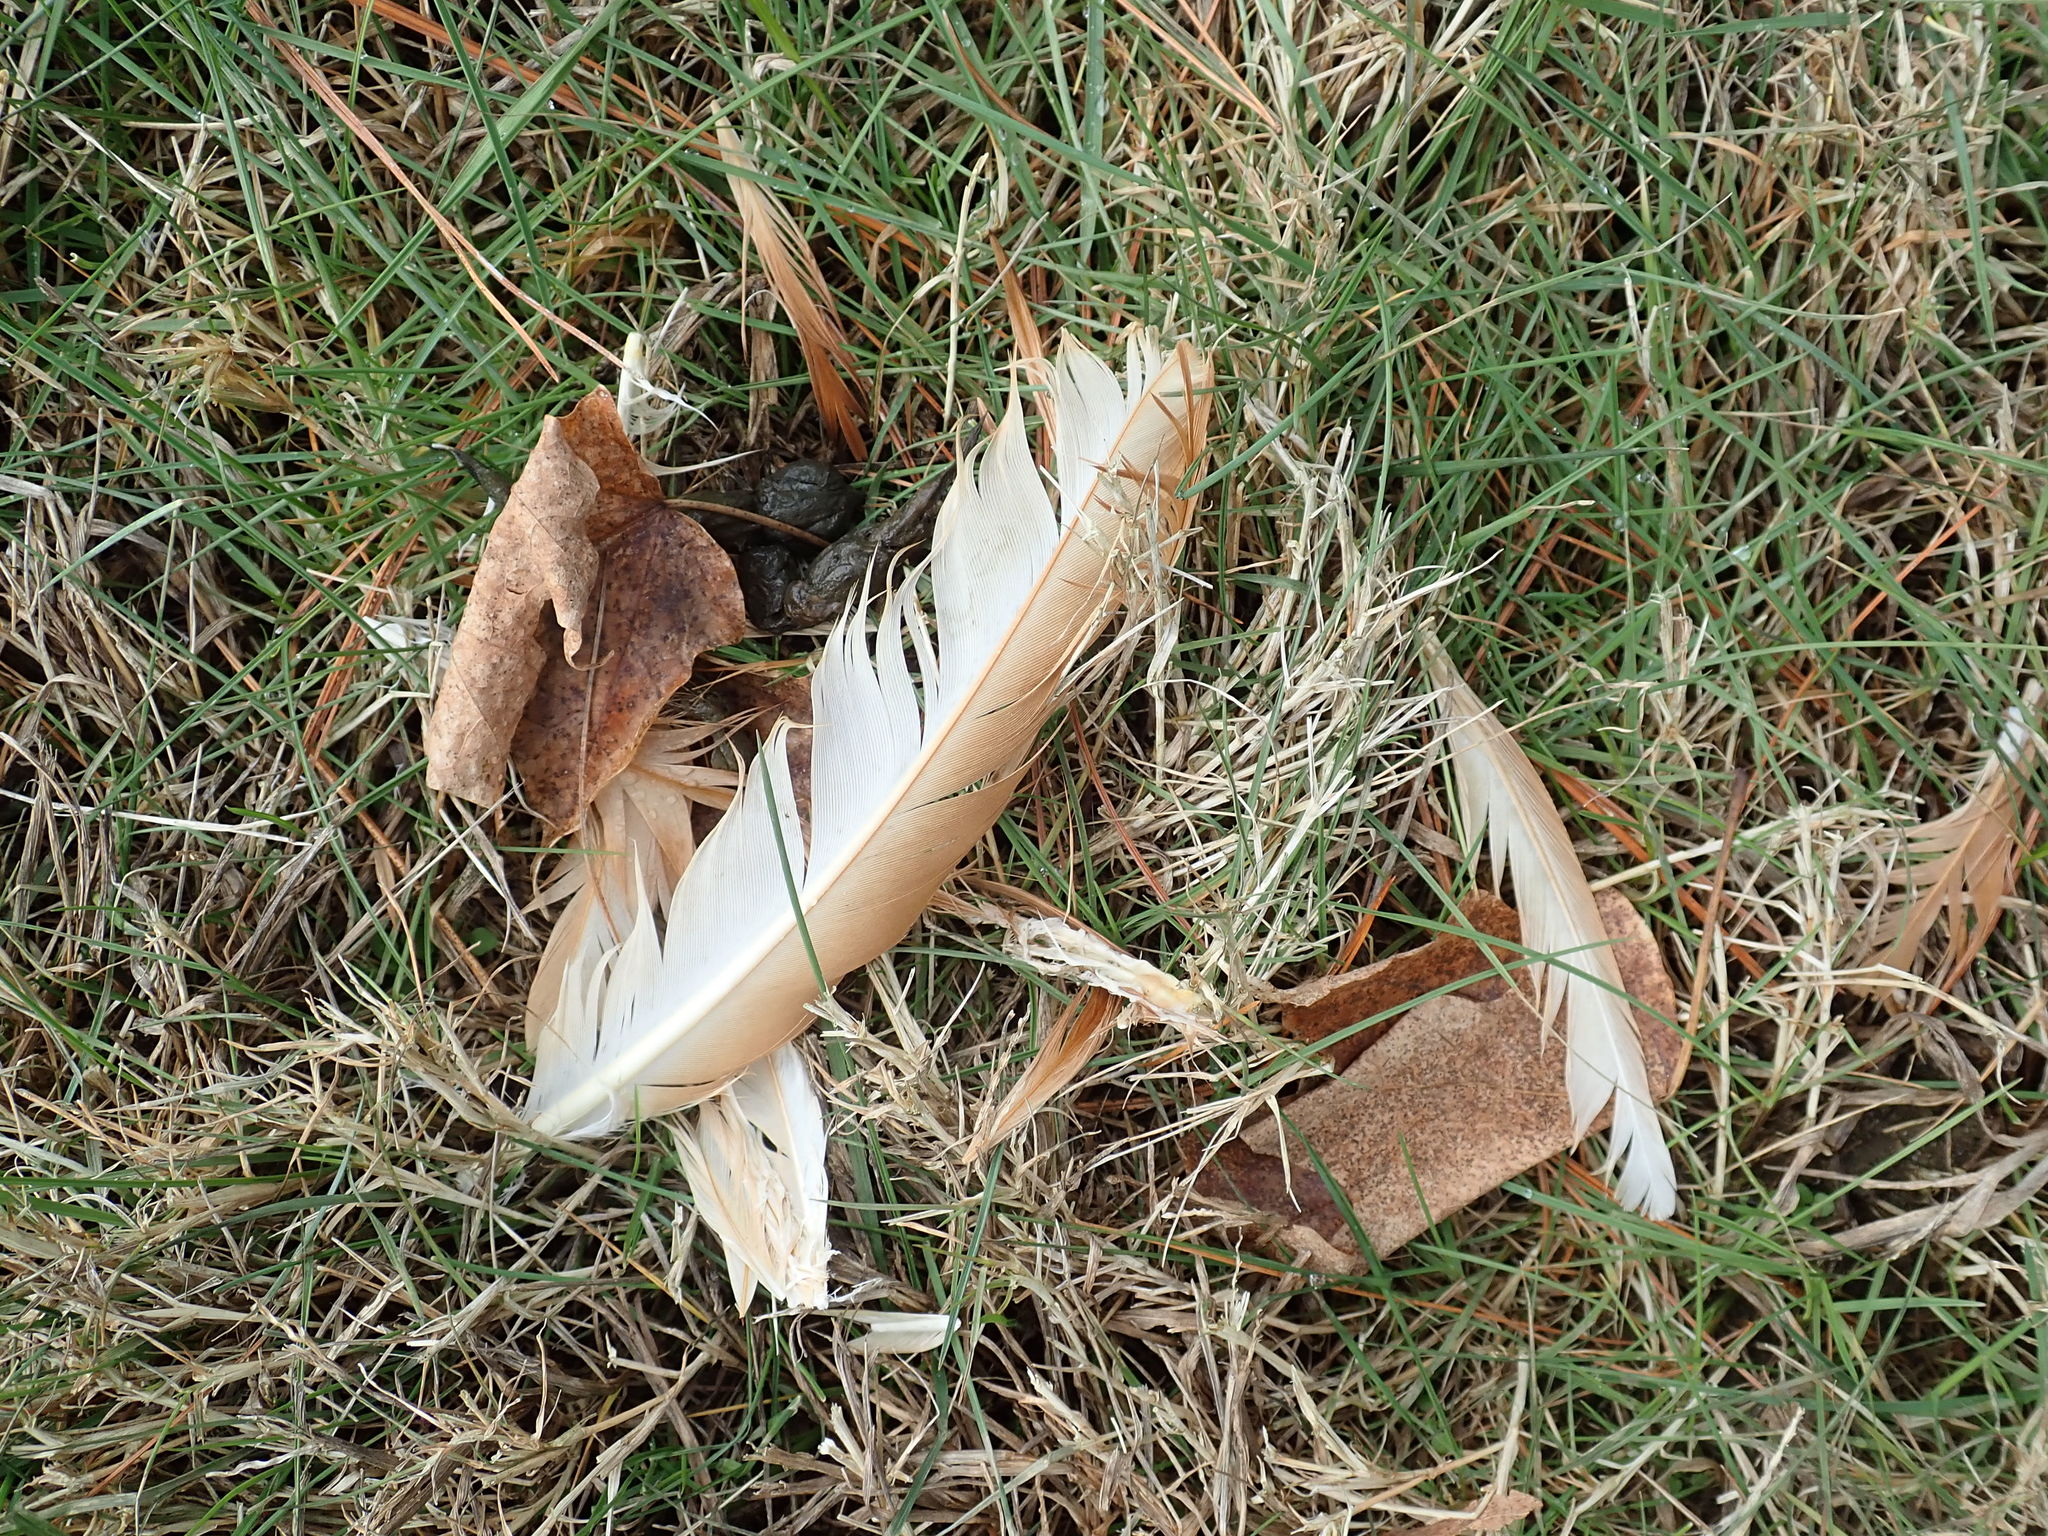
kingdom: Animalia
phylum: Chordata
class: Aves
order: Galliformes
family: Phasianidae
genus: Gallus
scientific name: Gallus gallus
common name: Red junglefowl
